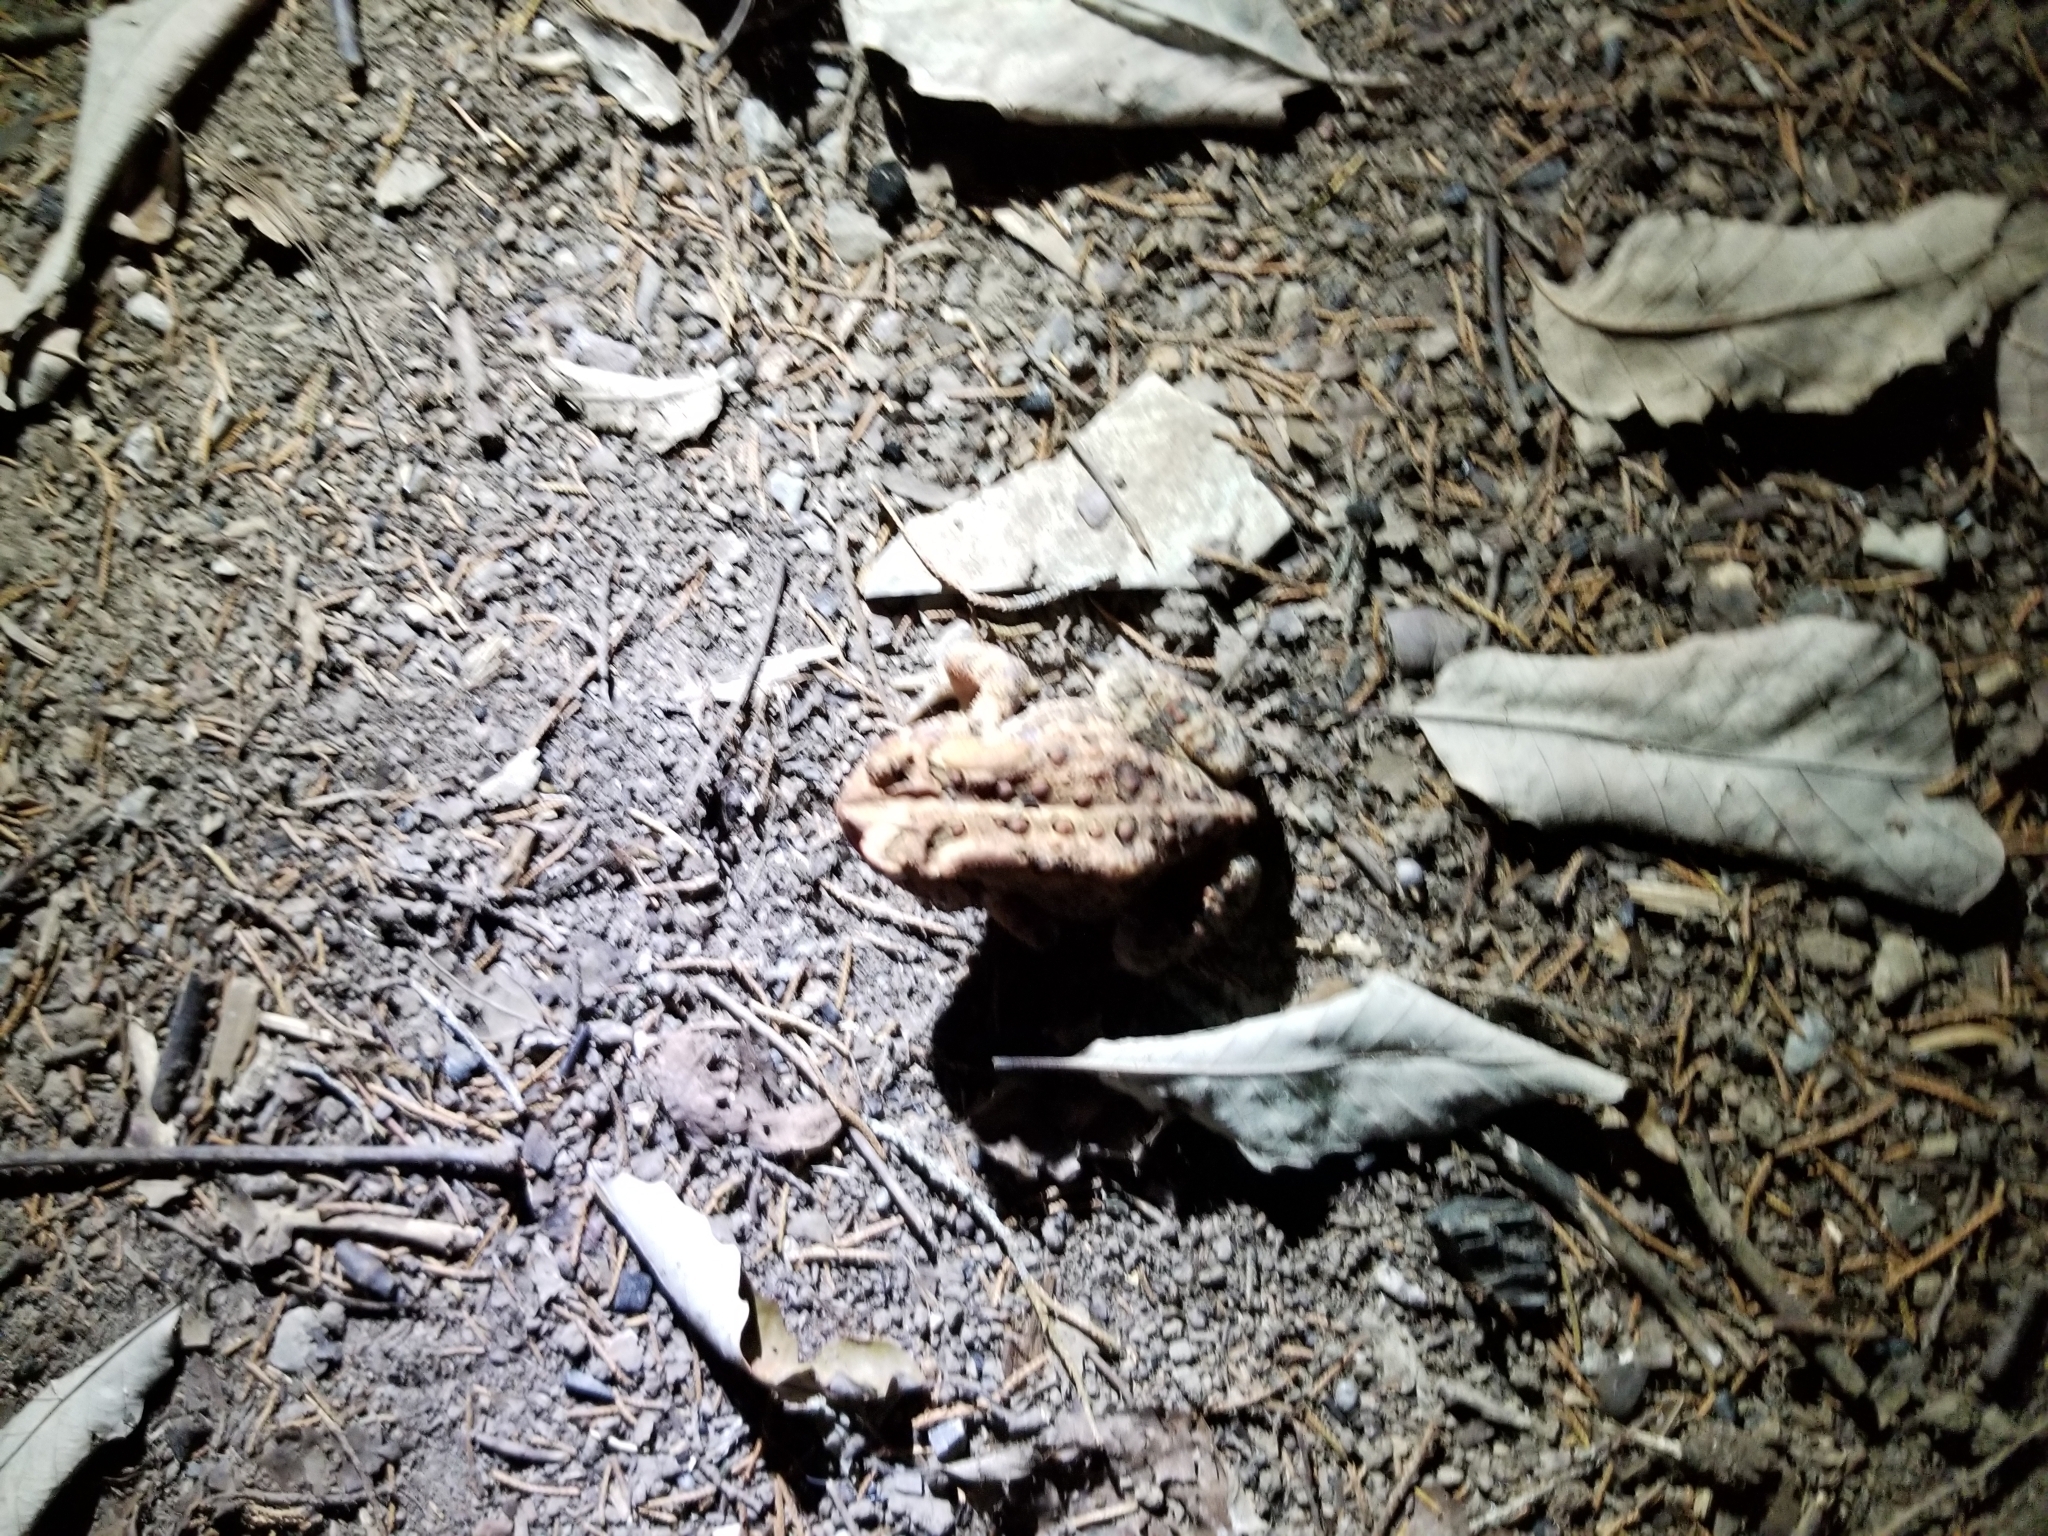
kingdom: Animalia
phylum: Chordata
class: Amphibia
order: Anura
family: Bufonidae
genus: Anaxyrus
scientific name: Anaxyrus americanus
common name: American toad
